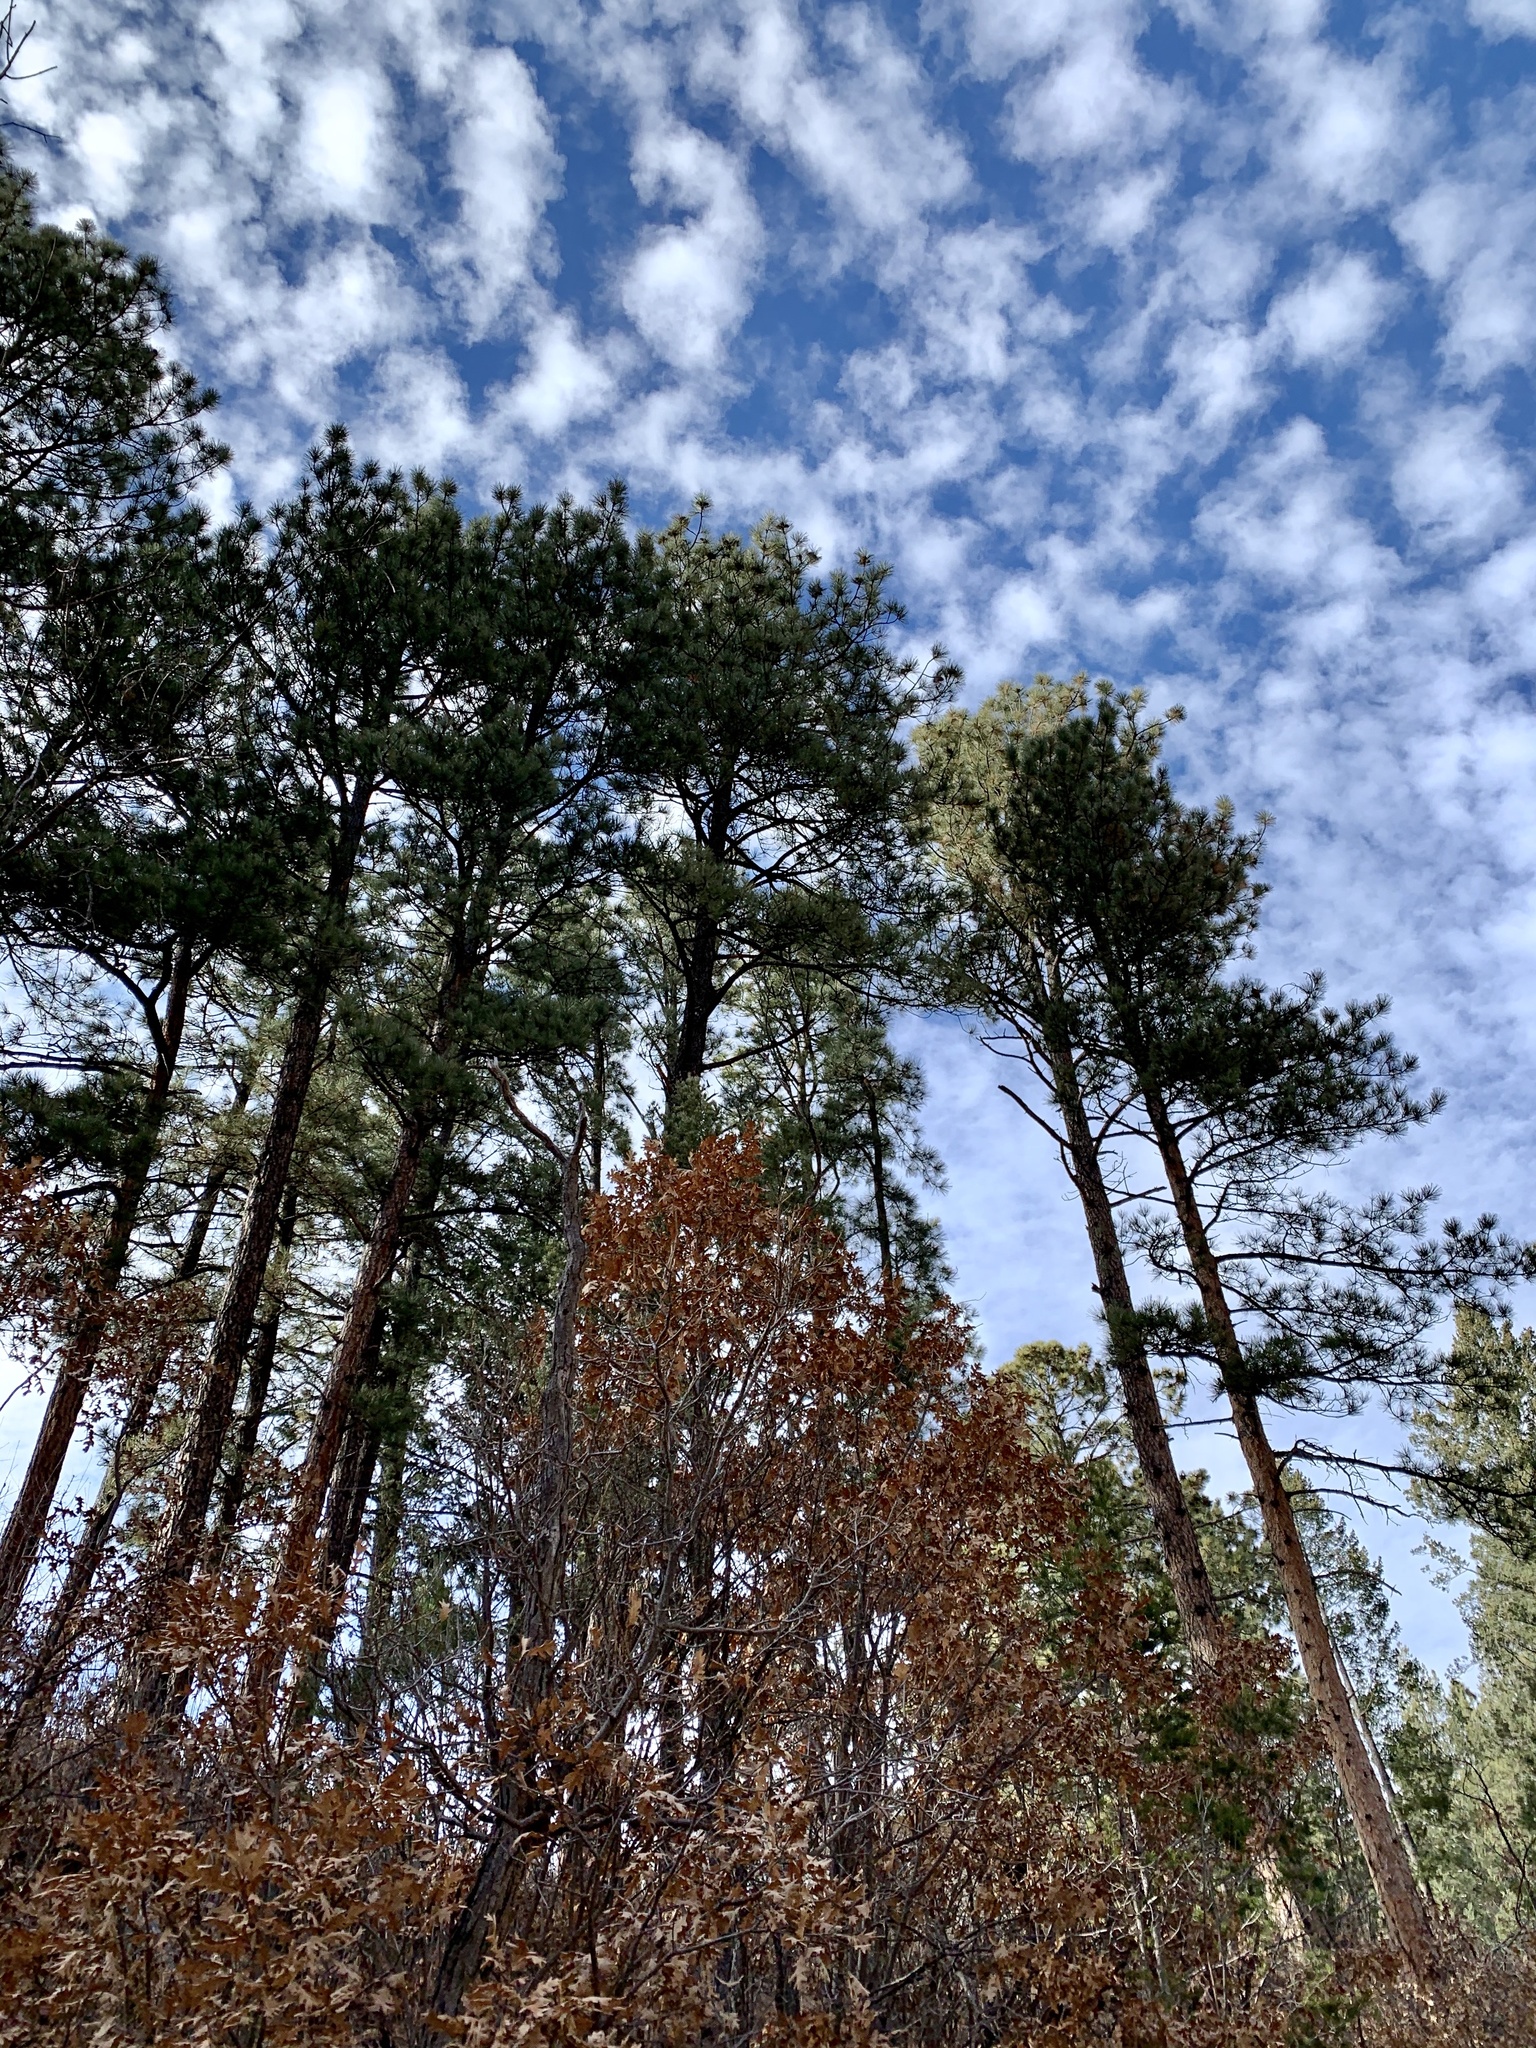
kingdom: Plantae
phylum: Tracheophyta
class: Pinopsida
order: Pinales
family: Pinaceae
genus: Pinus
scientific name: Pinus ponderosa
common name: Western yellow-pine
